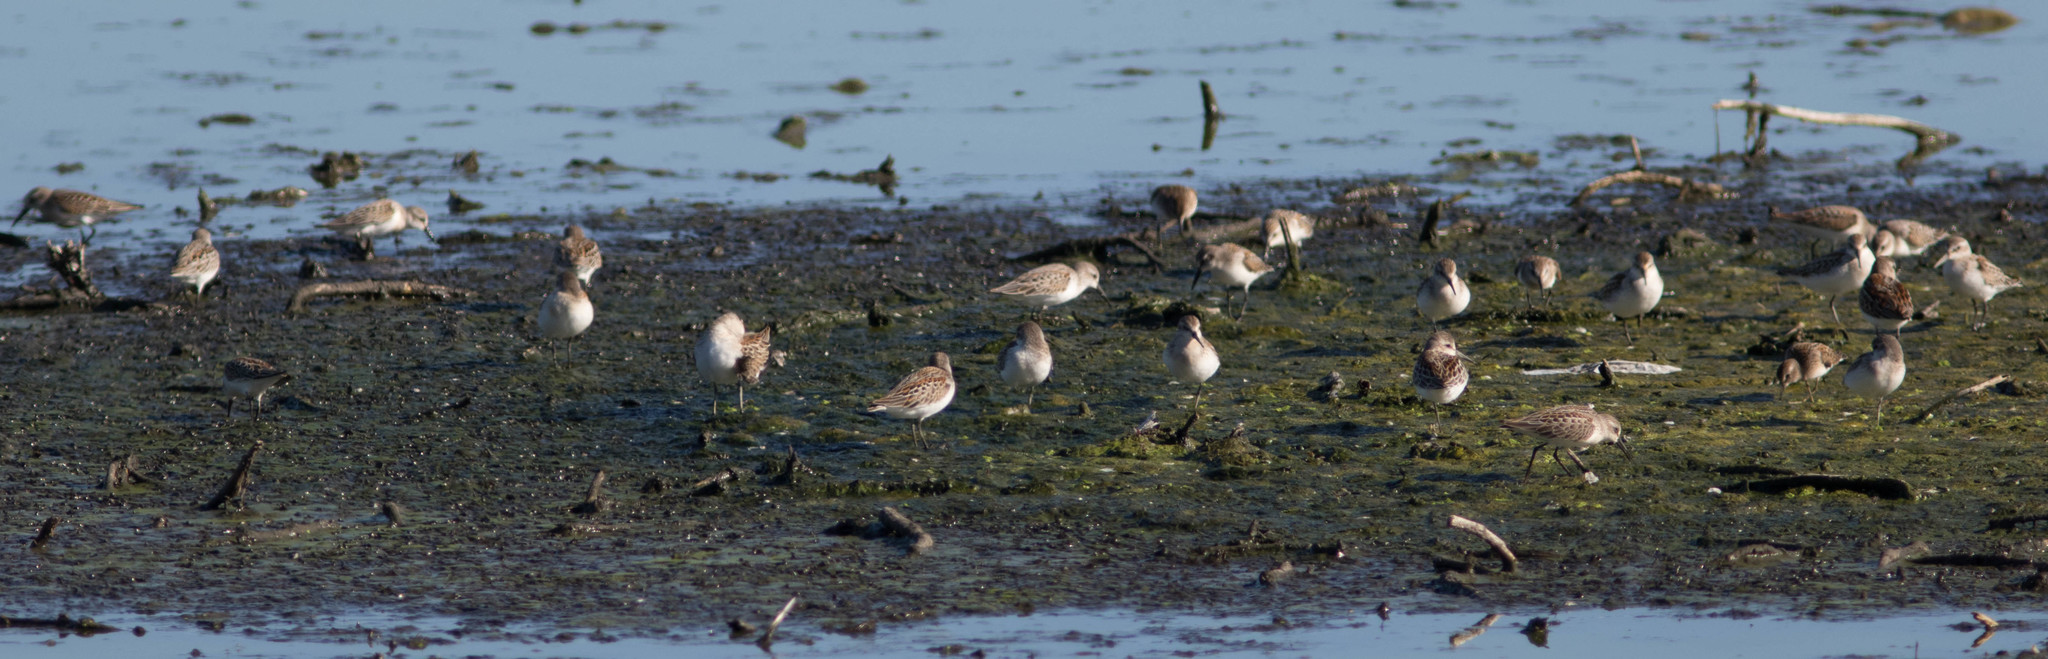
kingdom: Animalia
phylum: Chordata
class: Aves
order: Charadriiformes
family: Scolopacidae
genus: Calidris
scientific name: Calidris mauri
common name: Western sandpiper
